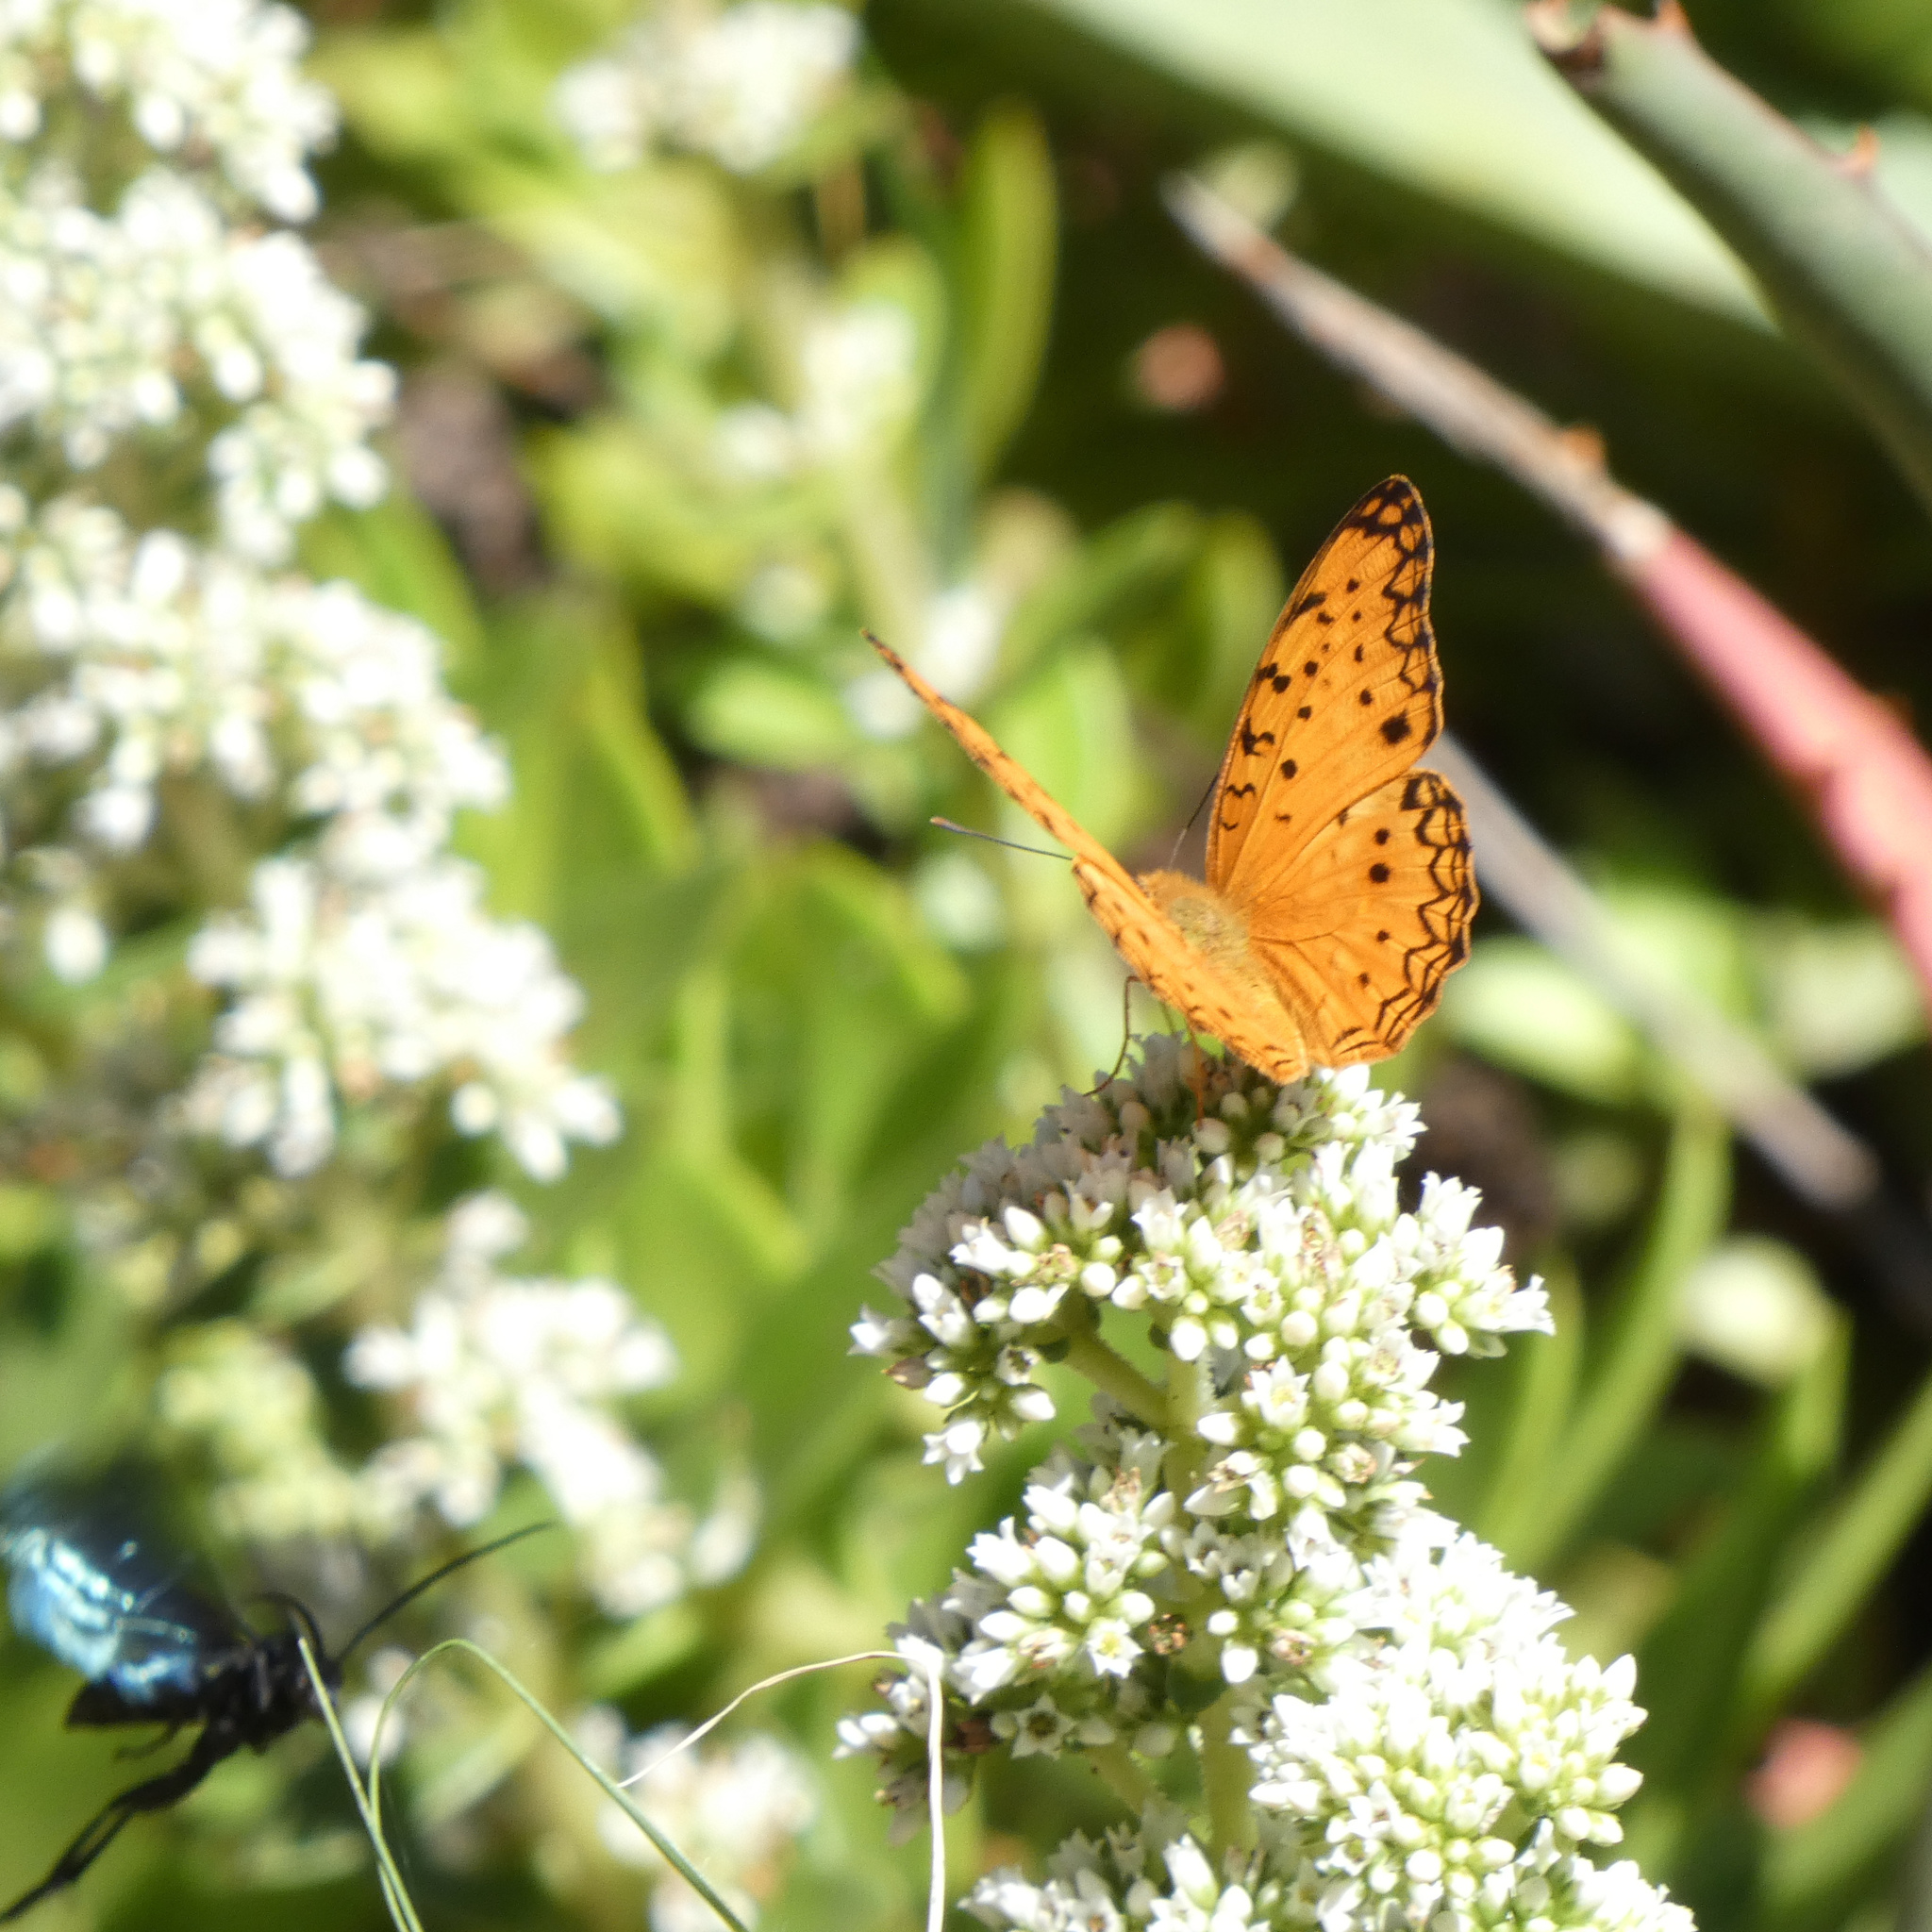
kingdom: Animalia
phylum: Arthropoda
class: Insecta
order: Lepidoptera
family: Nymphalidae
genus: Phalanta
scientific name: Phalanta phalantha
